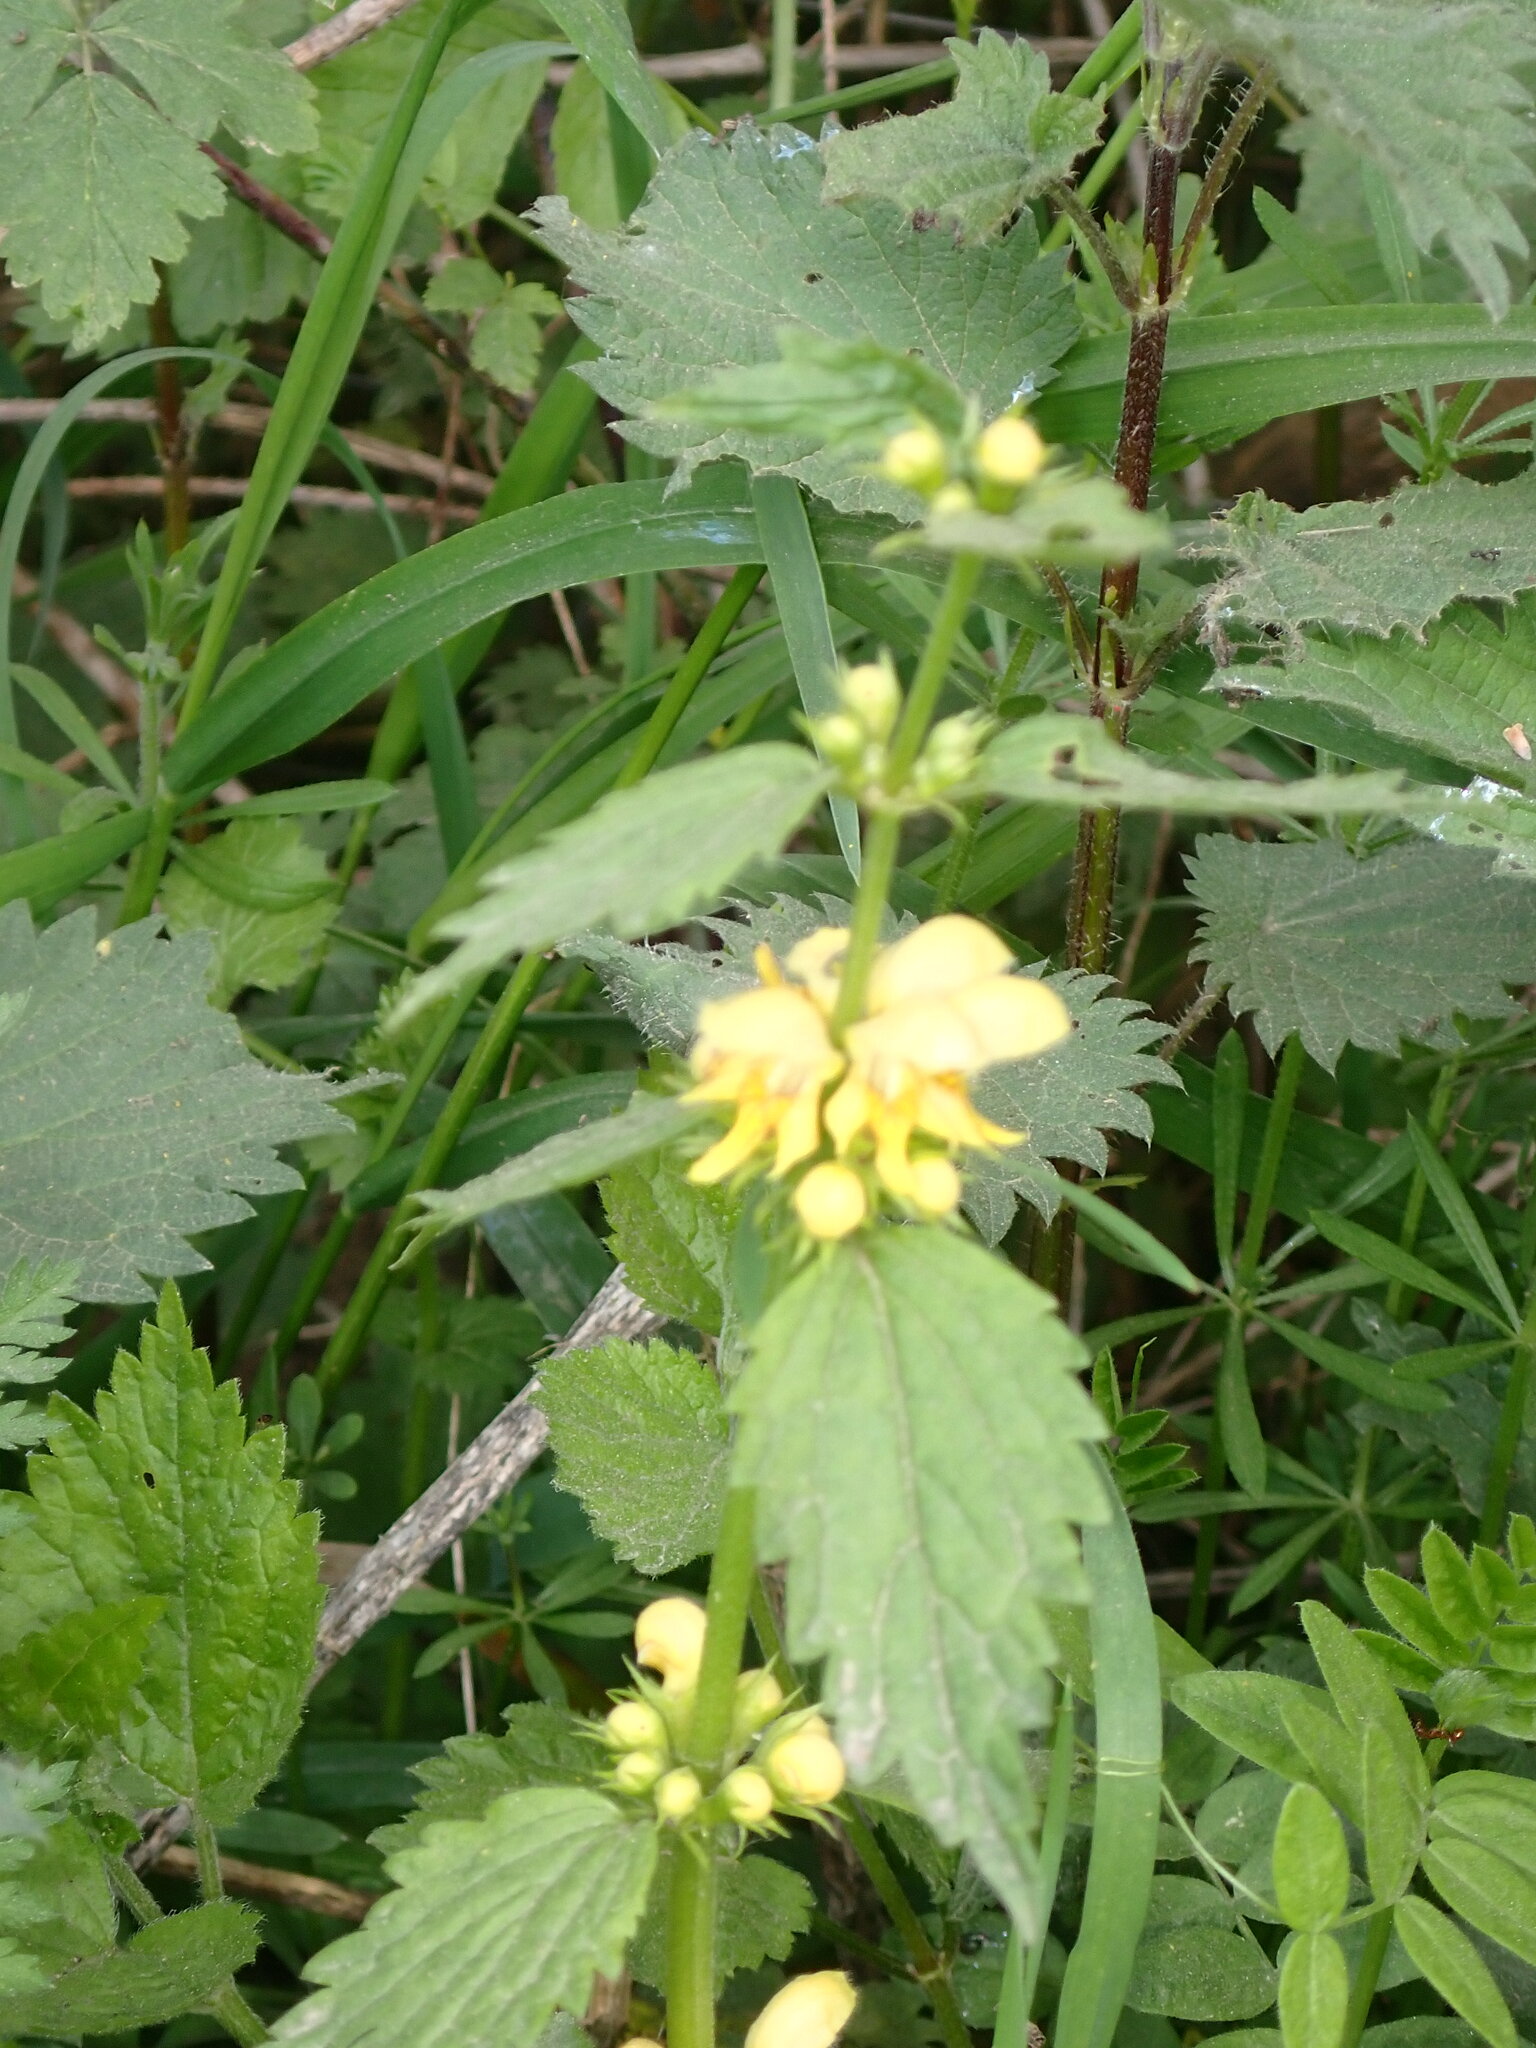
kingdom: Plantae
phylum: Tracheophyta
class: Magnoliopsida
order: Lamiales
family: Lamiaceae
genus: Lamium
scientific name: Lamium galeobdolon
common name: Yellow archangel
